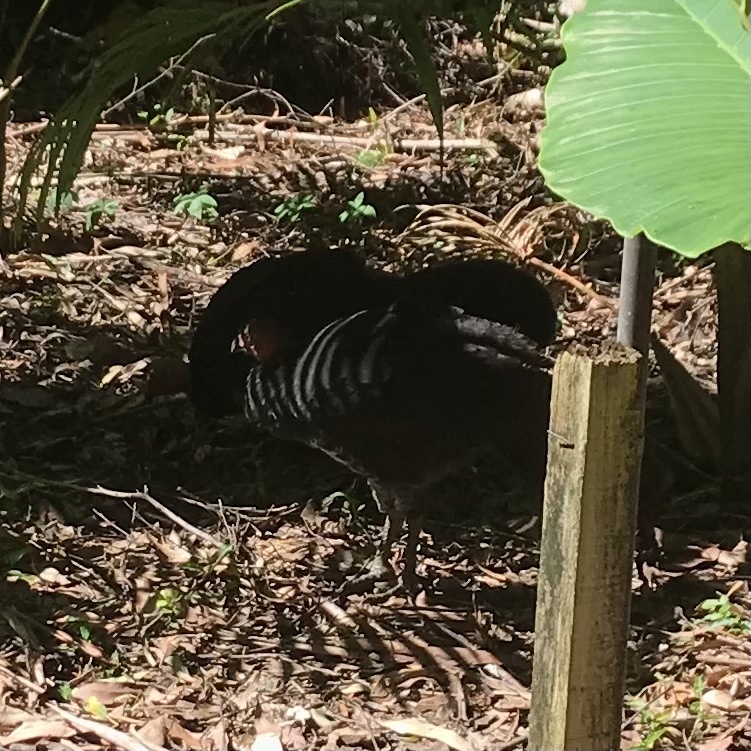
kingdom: Animalia
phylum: Chordata
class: Aves
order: Galliformes
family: Megapodiidae
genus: Alectura
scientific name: Alectura lathami
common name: Australian brushturkey
